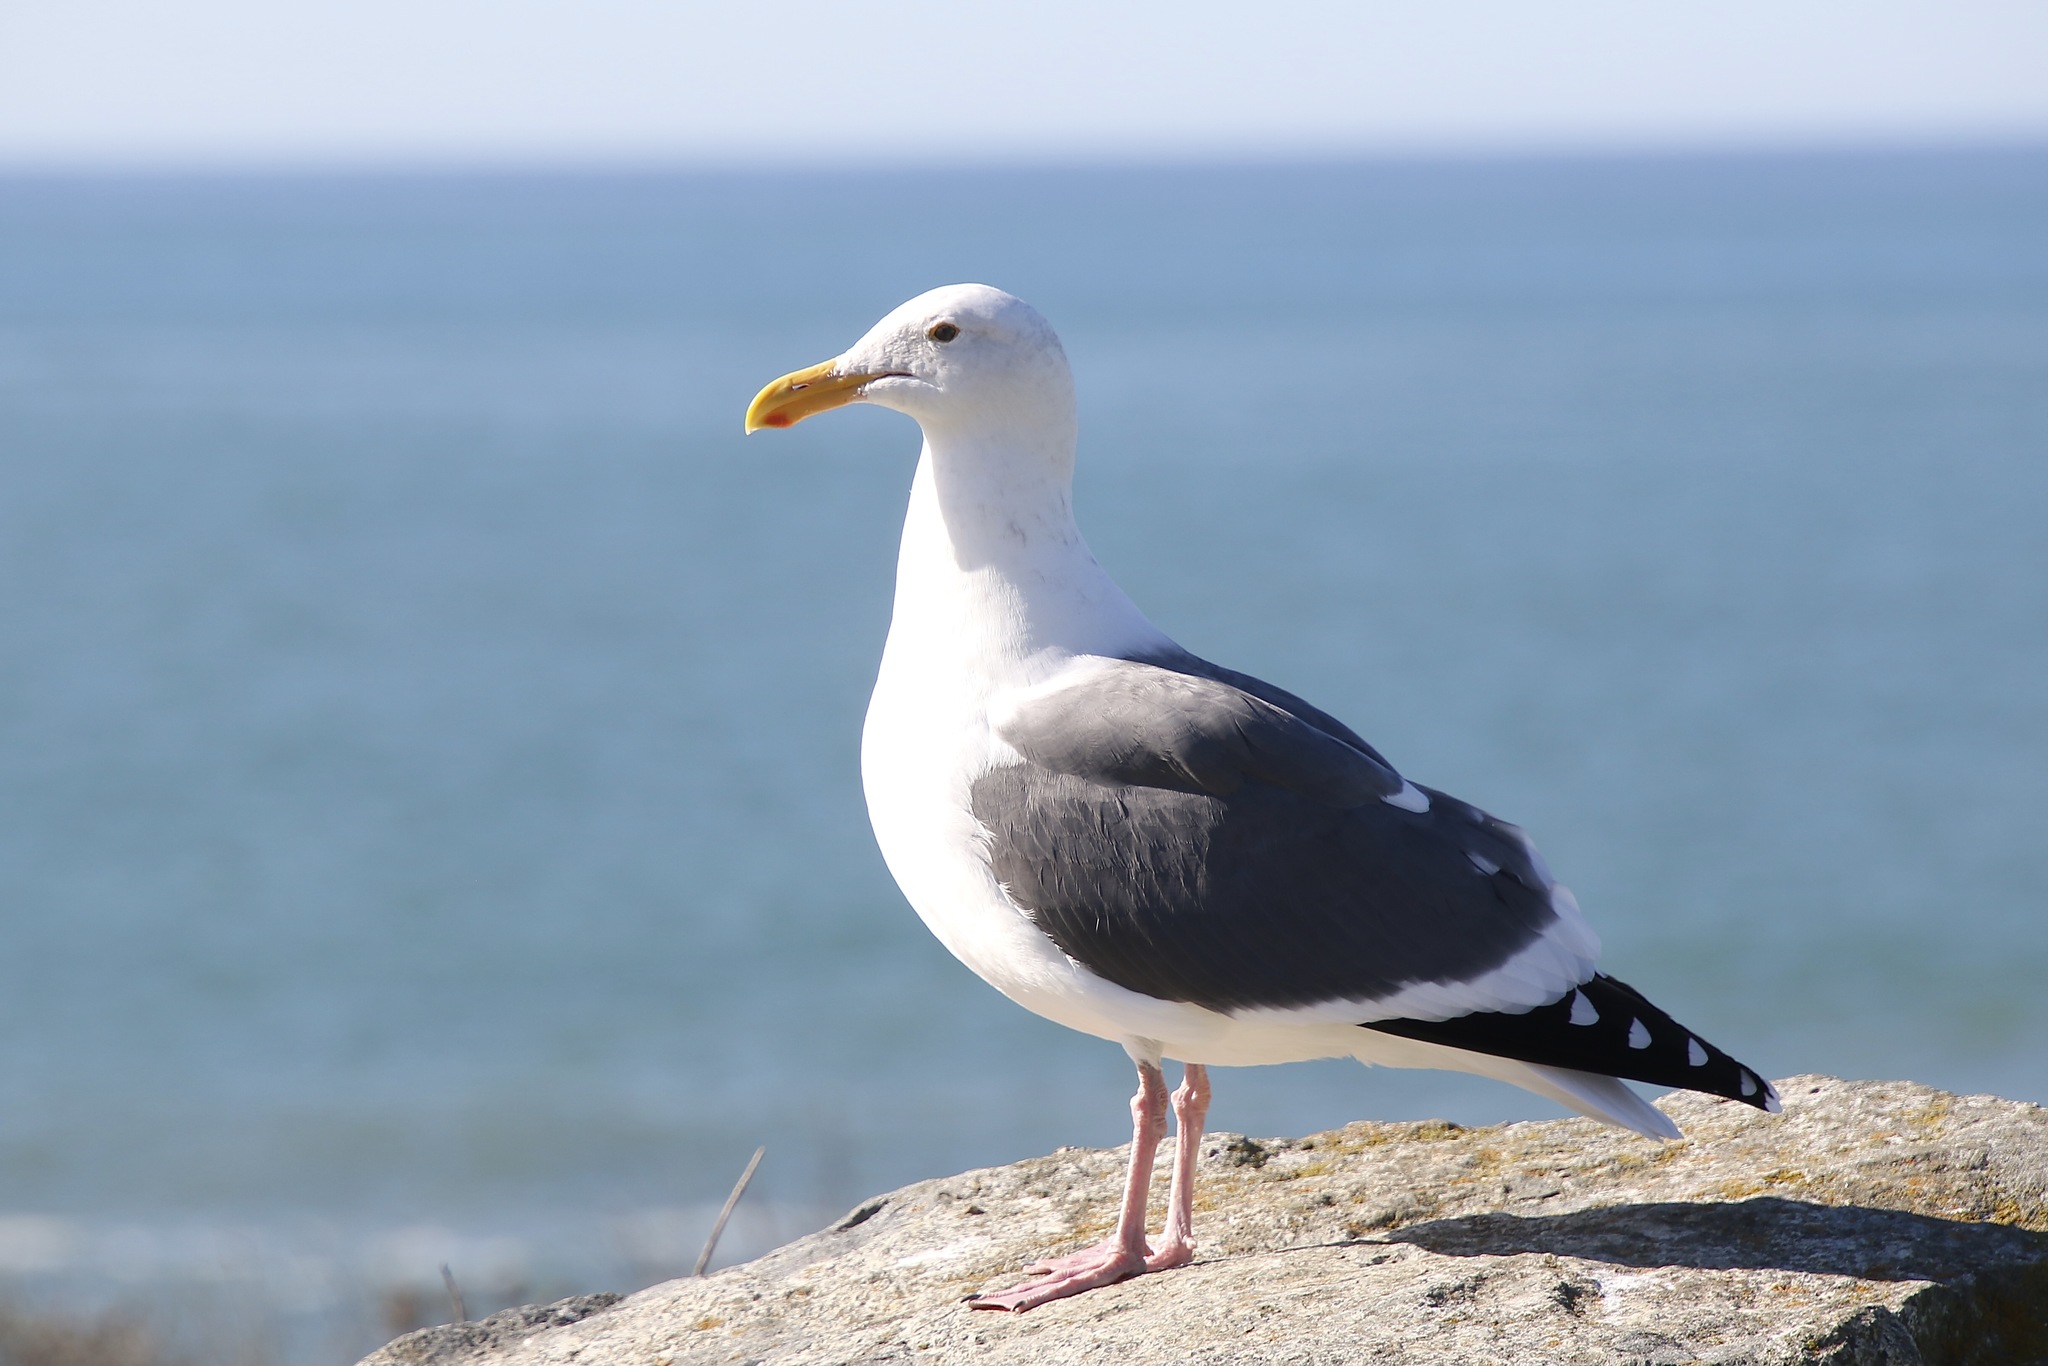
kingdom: Animalia
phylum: Chordata
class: Aves
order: Charadriiformes
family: Laridae
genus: Larus
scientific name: Larus occidentalis
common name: Western gull
